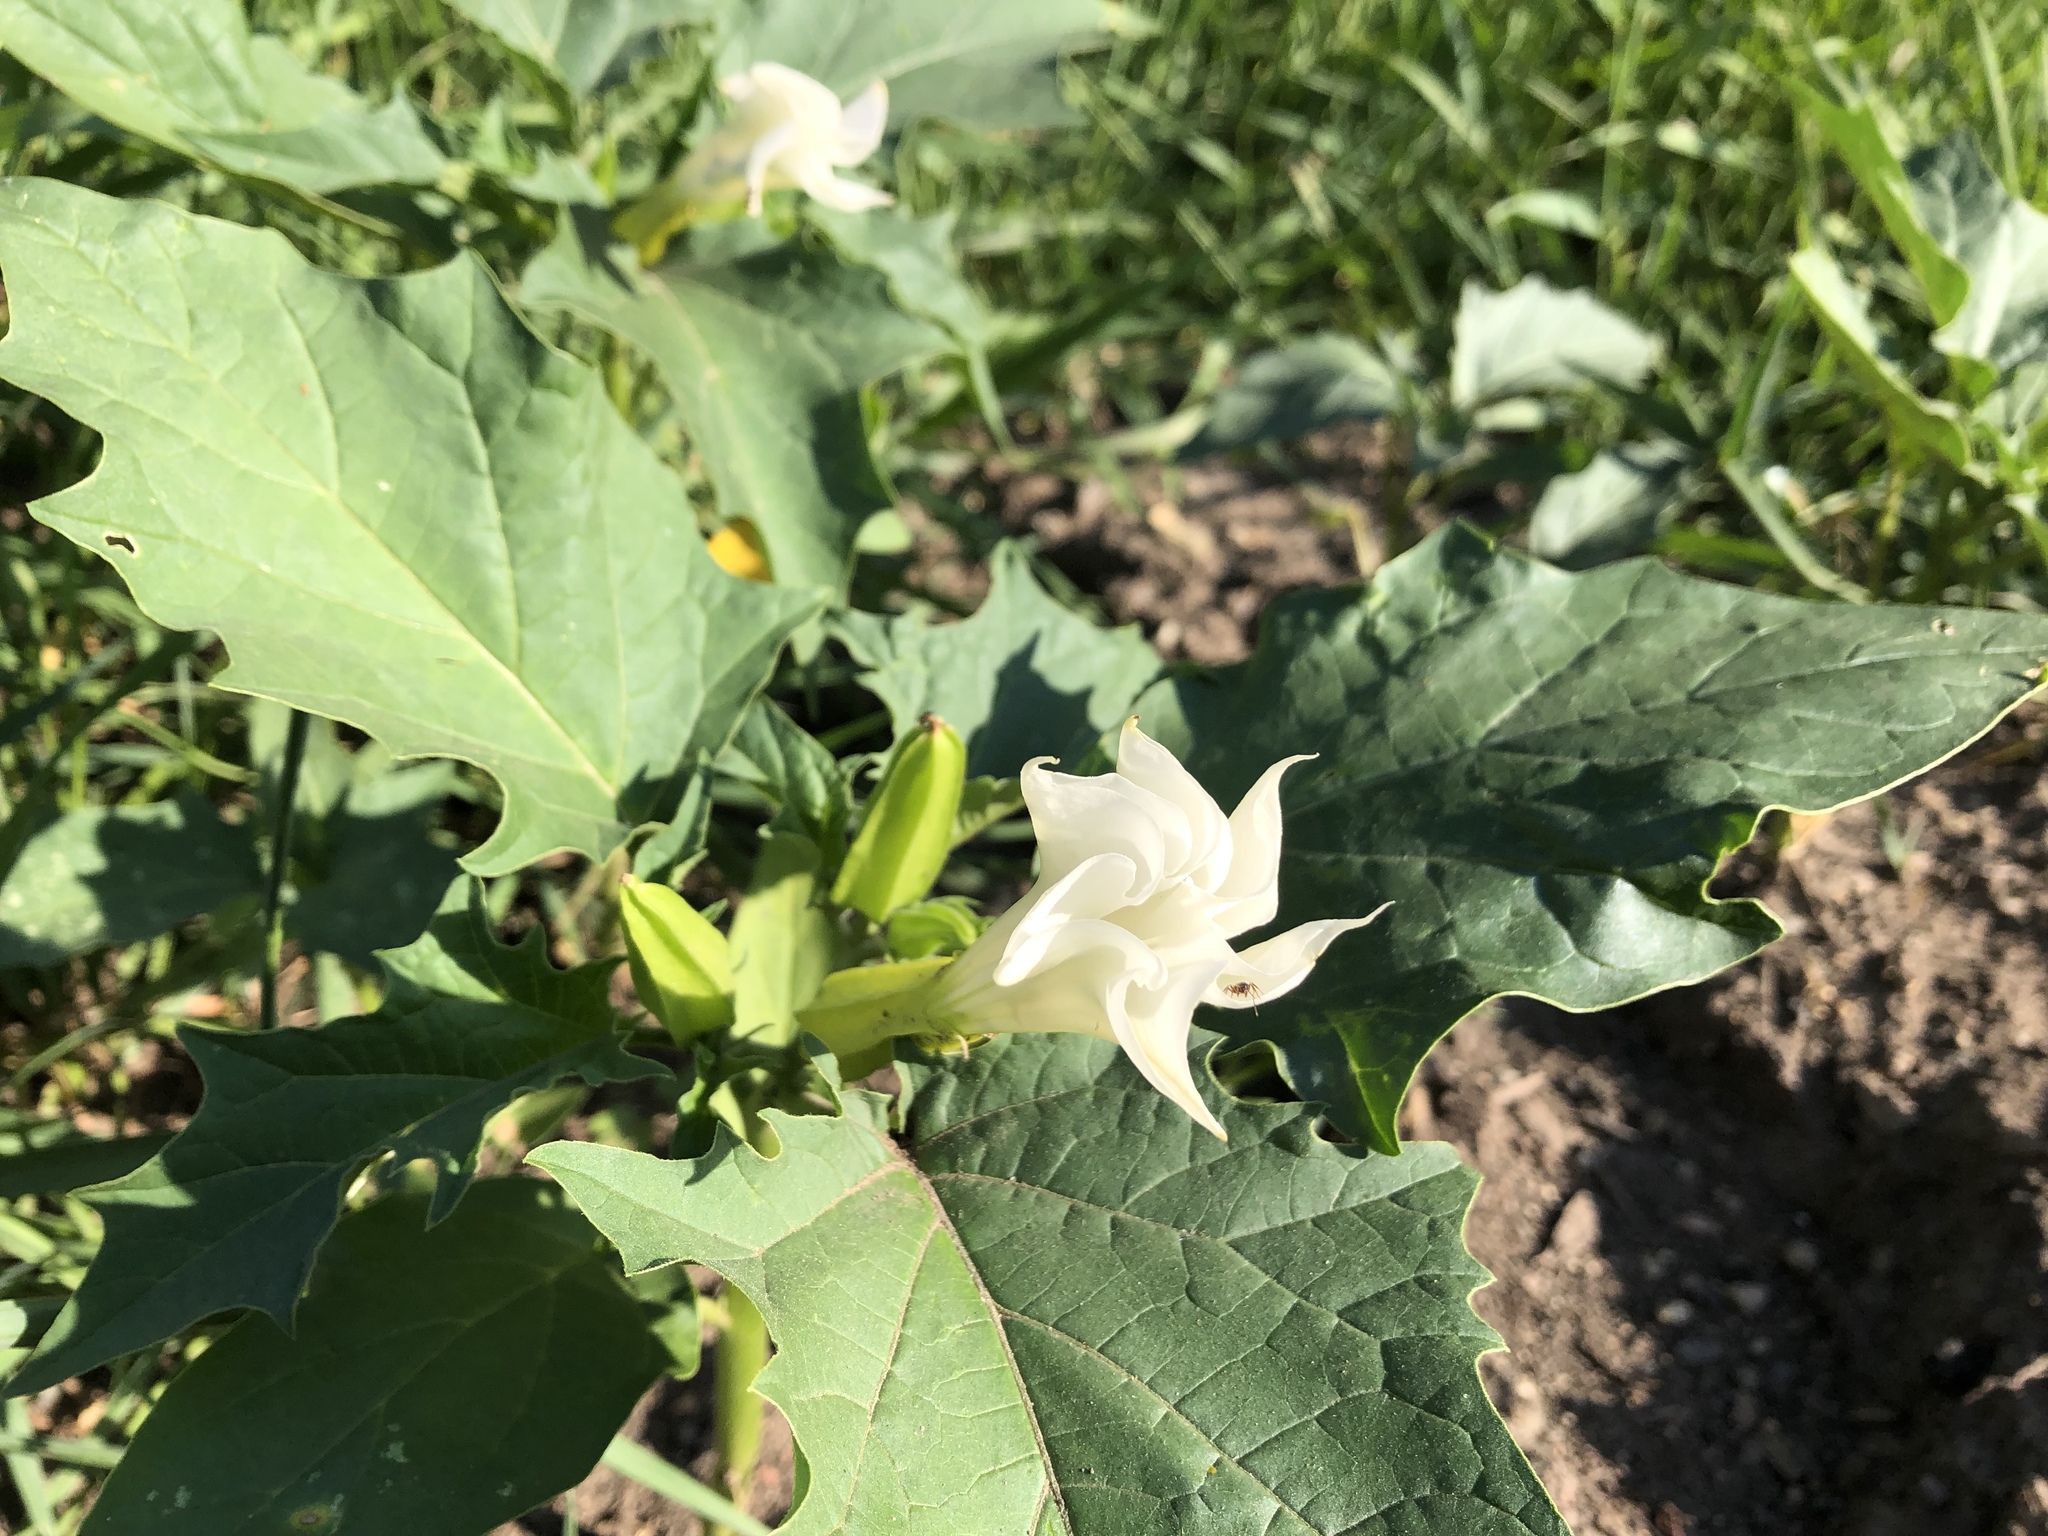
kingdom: Plantae
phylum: Tracheophyta
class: Magnoliopsida
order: Solanales
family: Solanaceae
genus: Datura
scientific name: Datura stramonium
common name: Thorn-apple
